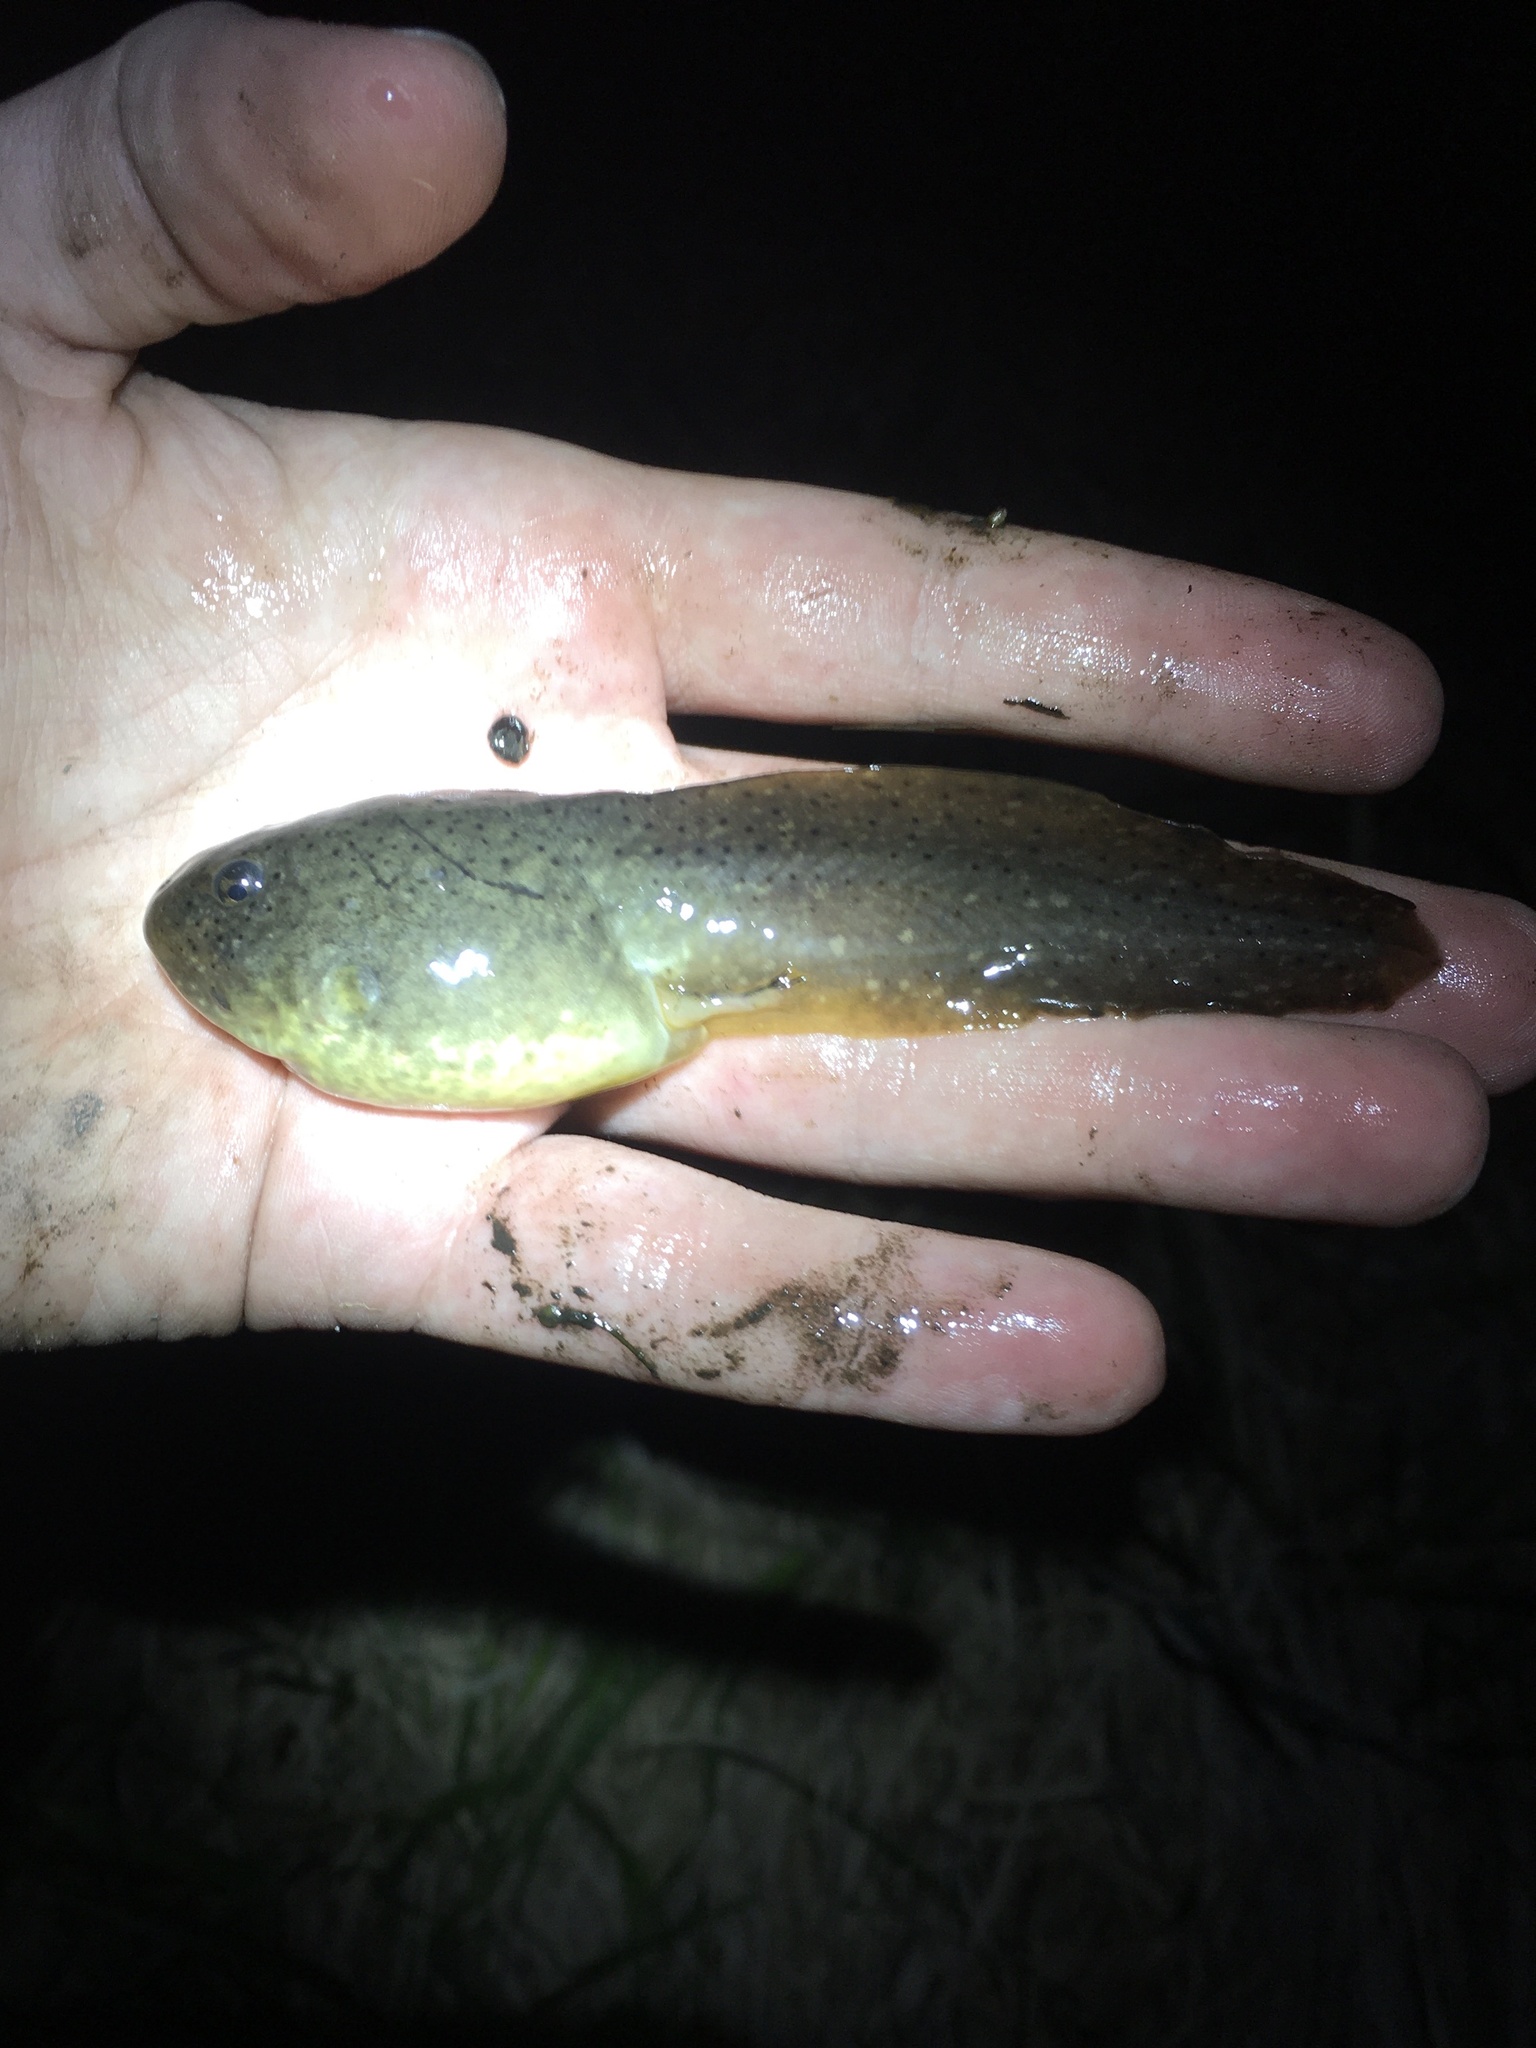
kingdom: Animalia
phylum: Chordata
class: Amphibia
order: Anura
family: Ranidae
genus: Lithobates
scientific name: Lithobates catesbeianus
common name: American bullfrog
